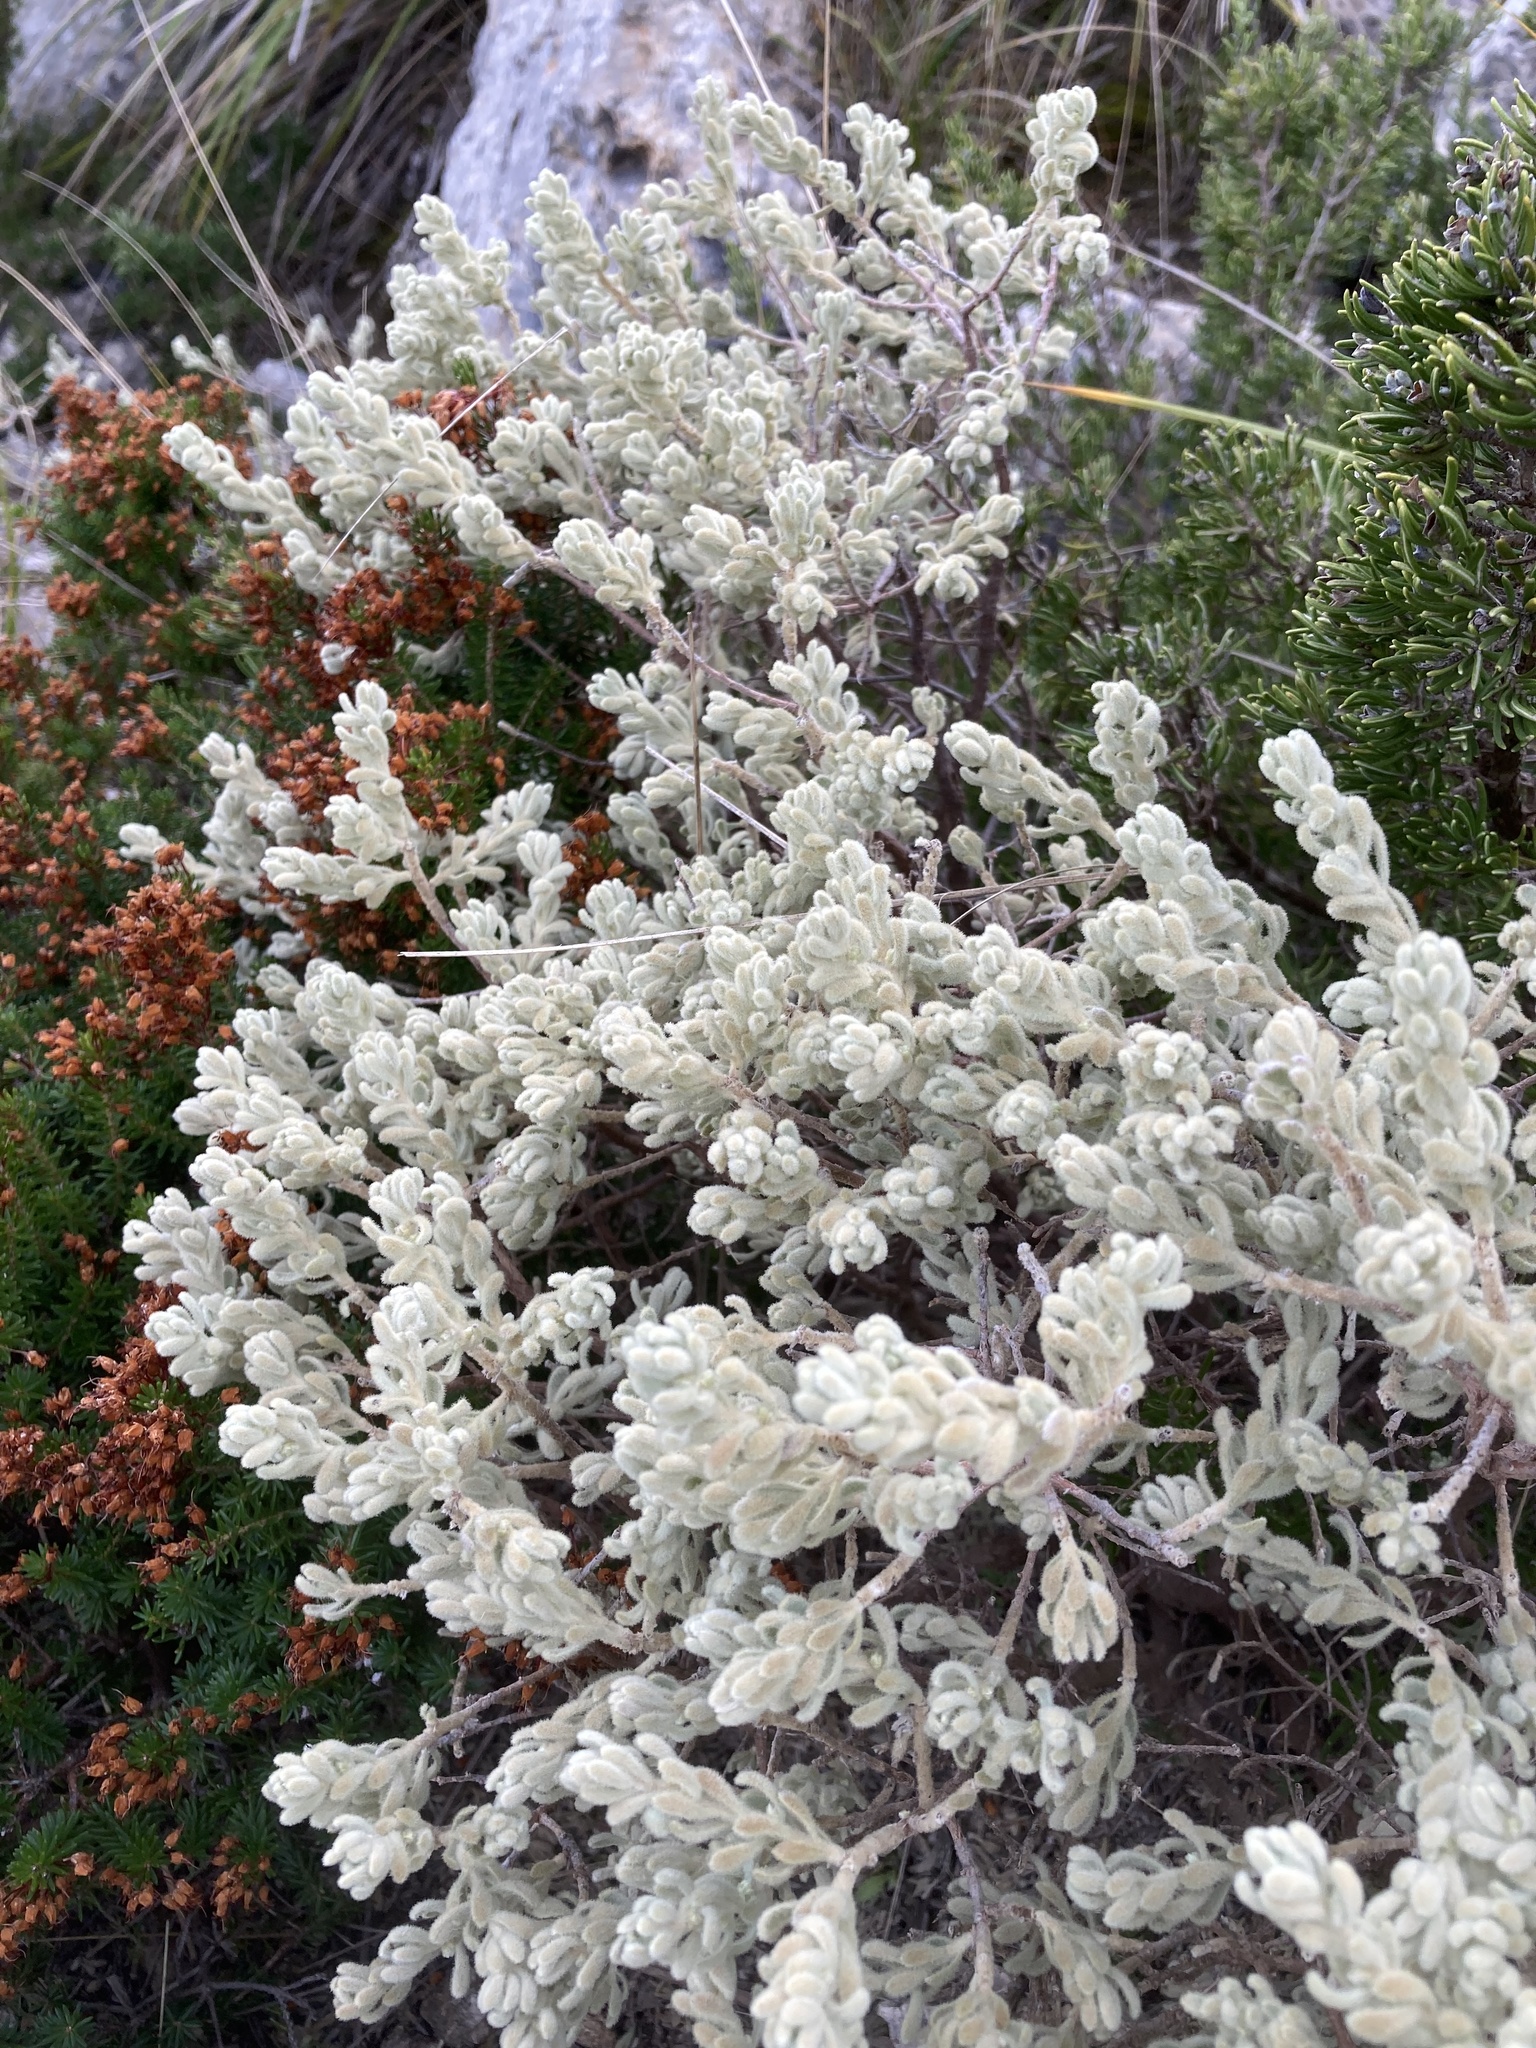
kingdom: Plantae
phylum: Tracheophyta
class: Magnoliopsida
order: Malvales
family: Thymelaeaceae
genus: Thymelaea
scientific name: Thymelaea velutina
